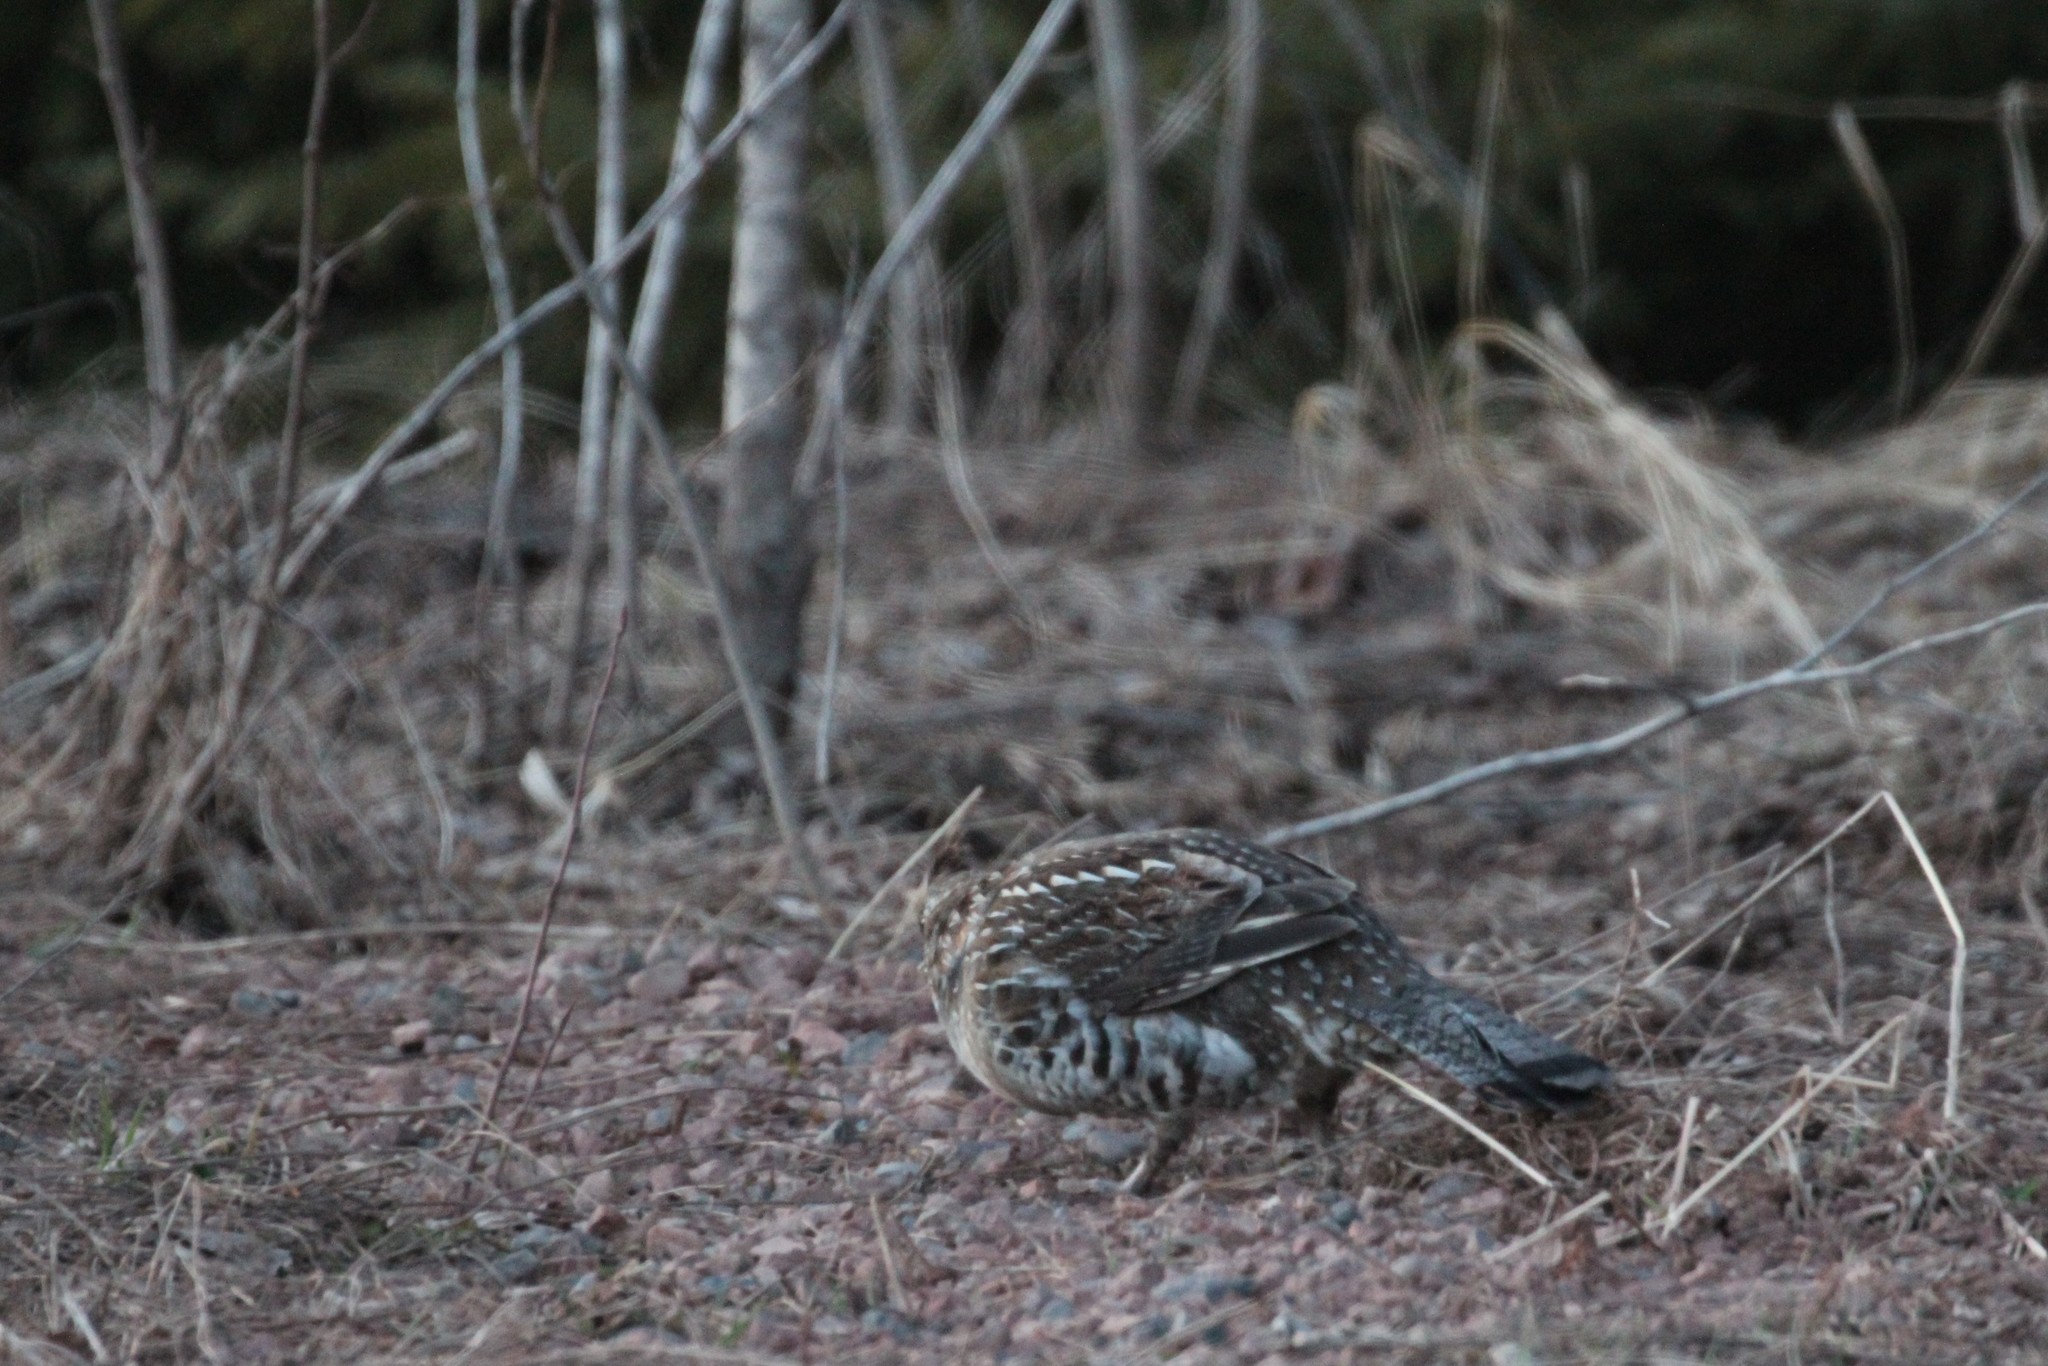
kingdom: Animalia
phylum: Chordata
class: Aves
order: Galliformes
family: Phasianidae
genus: Bonasa
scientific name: Bonasa umbellus
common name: Ruffed grouse
